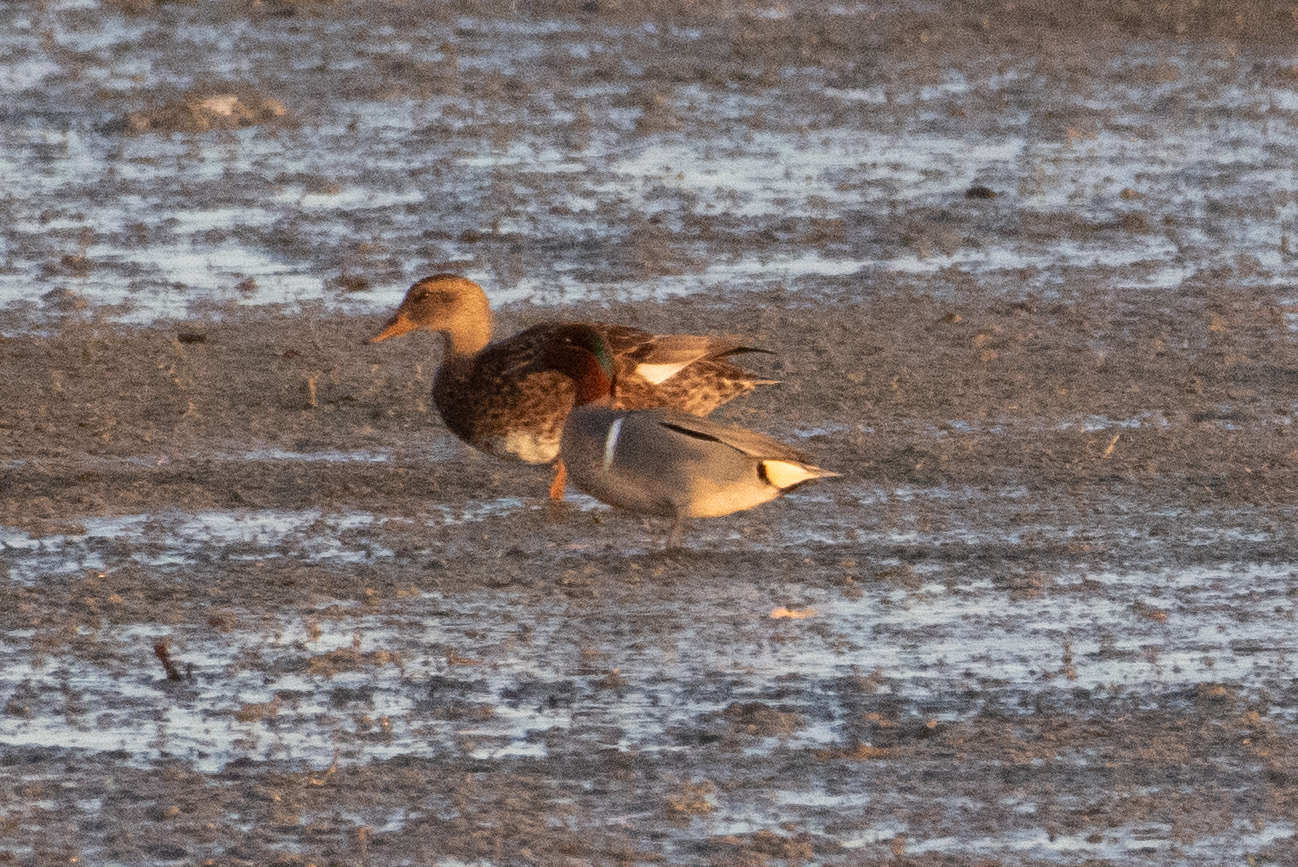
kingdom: Animalia
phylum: Chordata
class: Aves
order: Anseriformes
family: Anatidae
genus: Anas
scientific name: Anas crecca
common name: Eurasian teal
